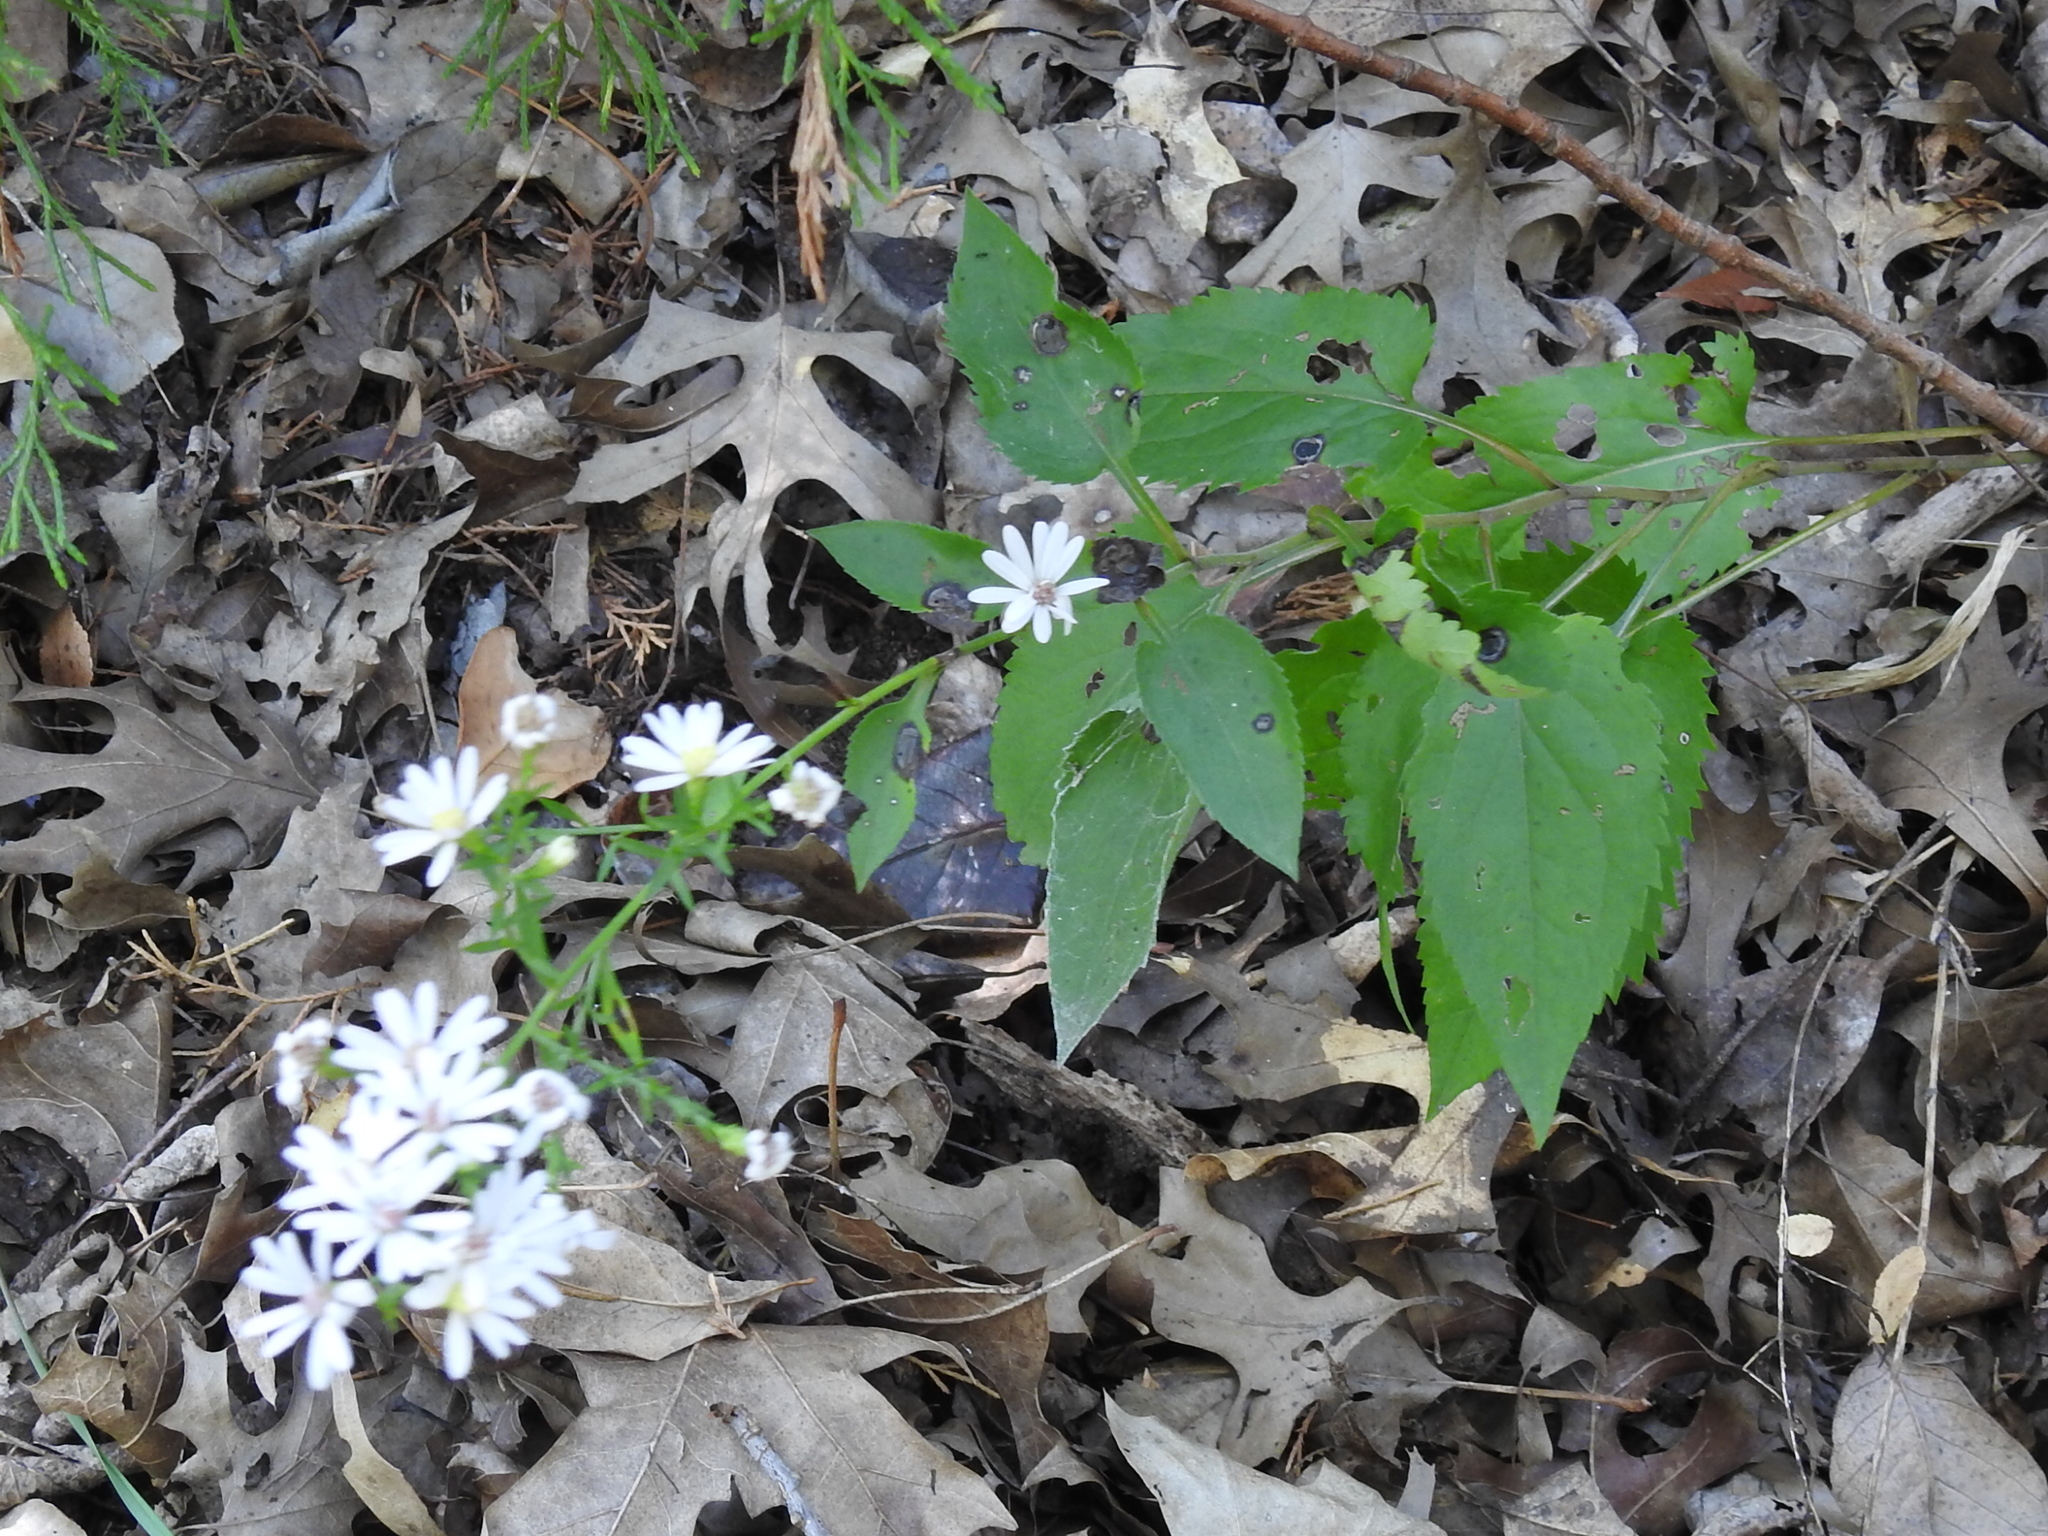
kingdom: Plantae
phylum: Tracheophyta
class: Magnoliopsida
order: Asterales
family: Asteraceae
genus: Symphyotrichum
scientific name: Symphyotrichum drummondii
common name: Drummond's aster
